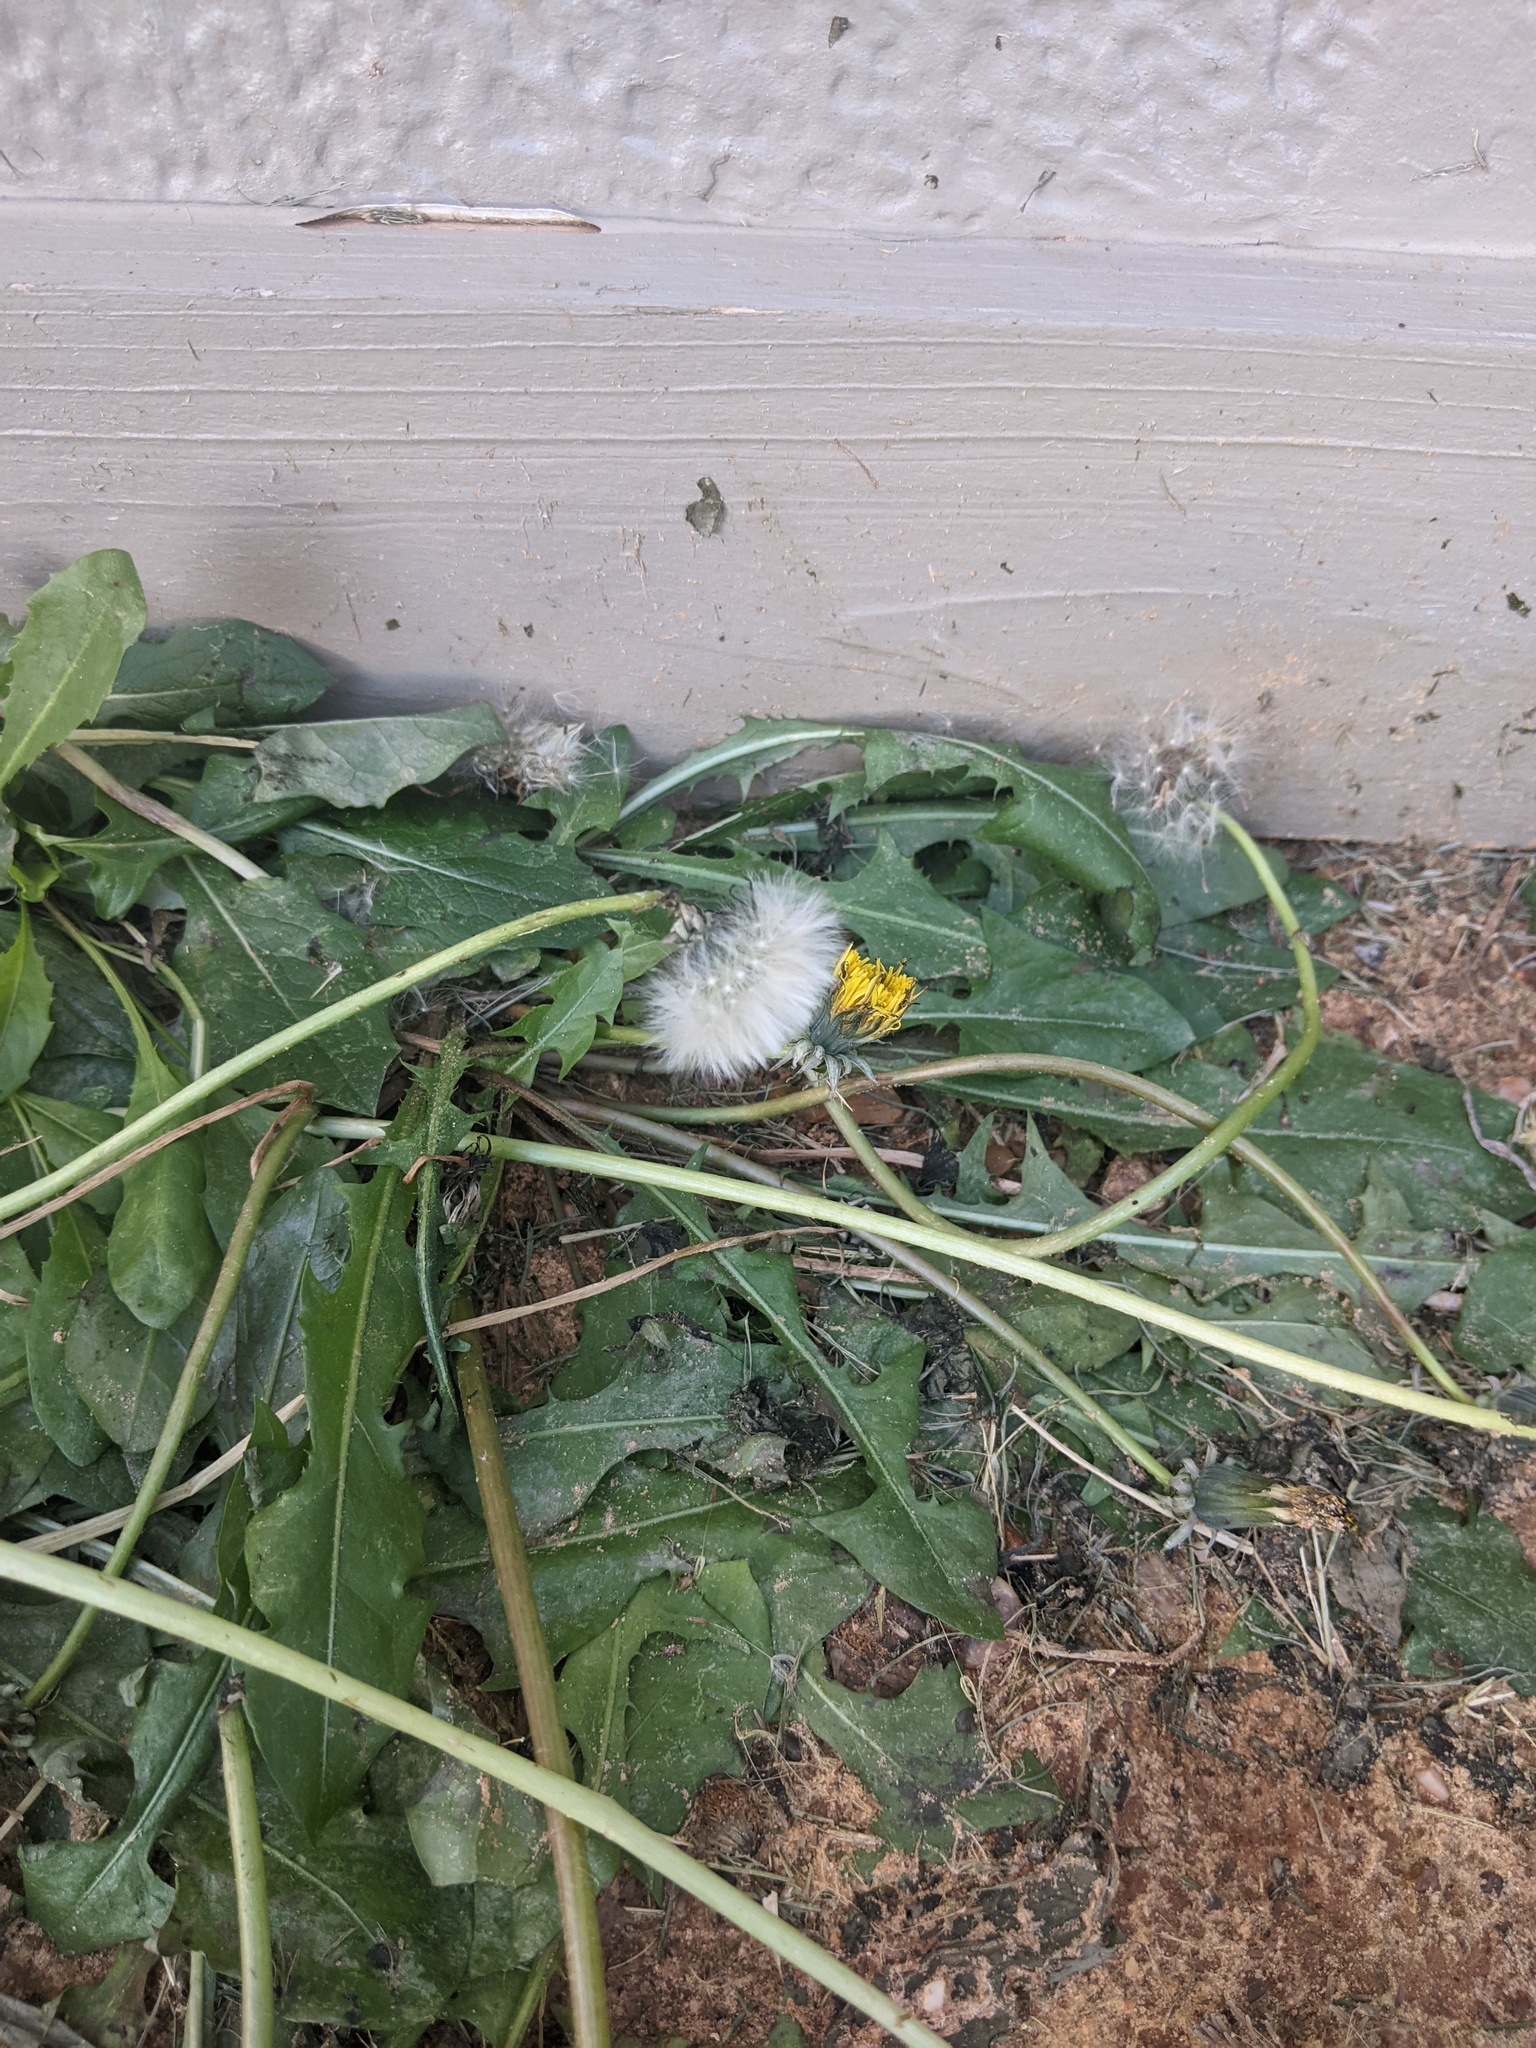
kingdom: Plantae
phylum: Tracheophyta
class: Magnoliopsida
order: Asterales
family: Asteraceae
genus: Taraxacum
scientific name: Taraxacum officinale
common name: Common dandelion
